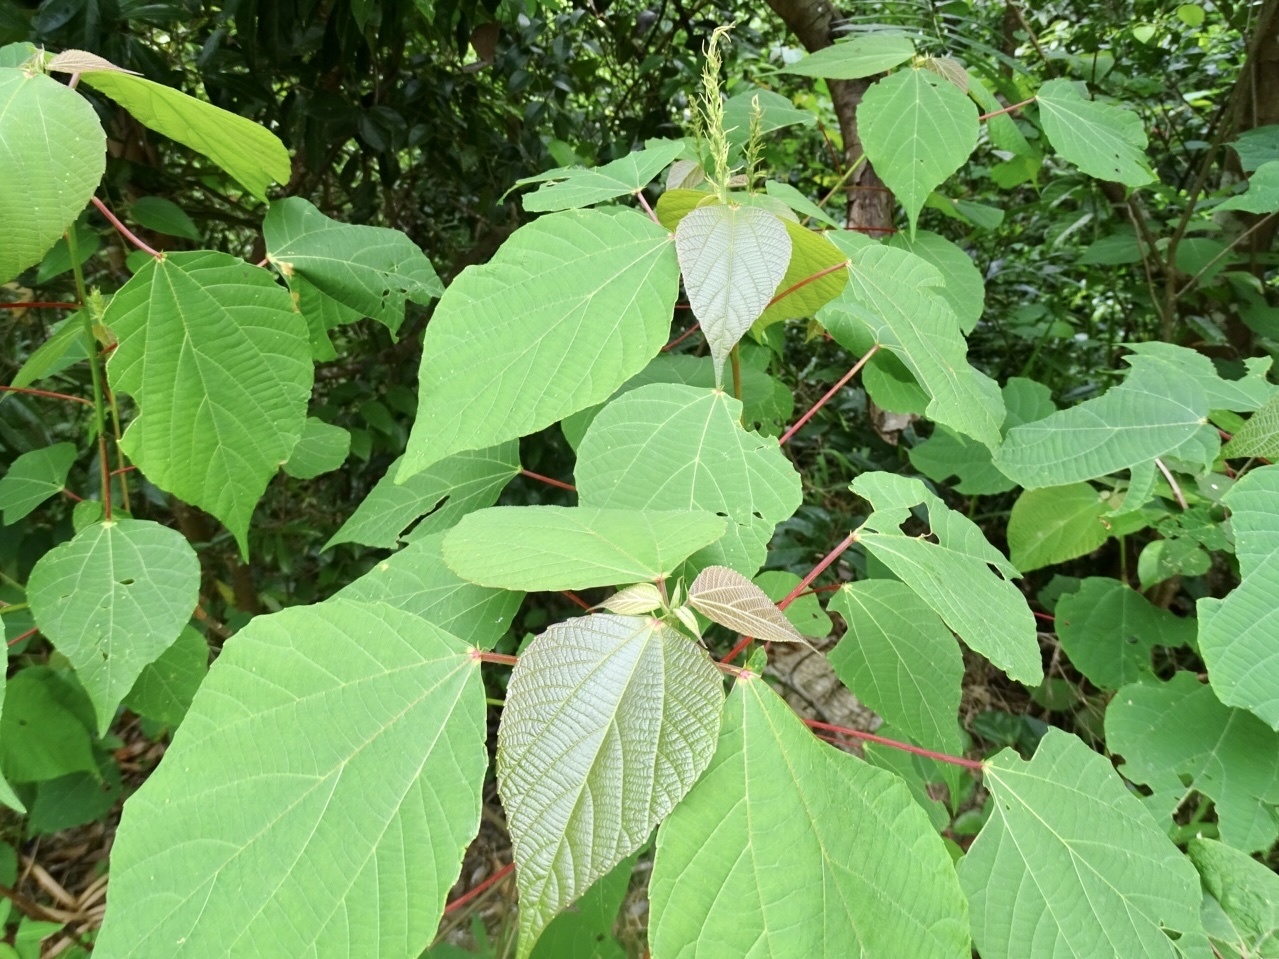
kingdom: Plantae
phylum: Tracheophyta
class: Magnoliopsida
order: Malpighiales
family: Euphorbiaceae
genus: Alchornea
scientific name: Alchornea trewioides
